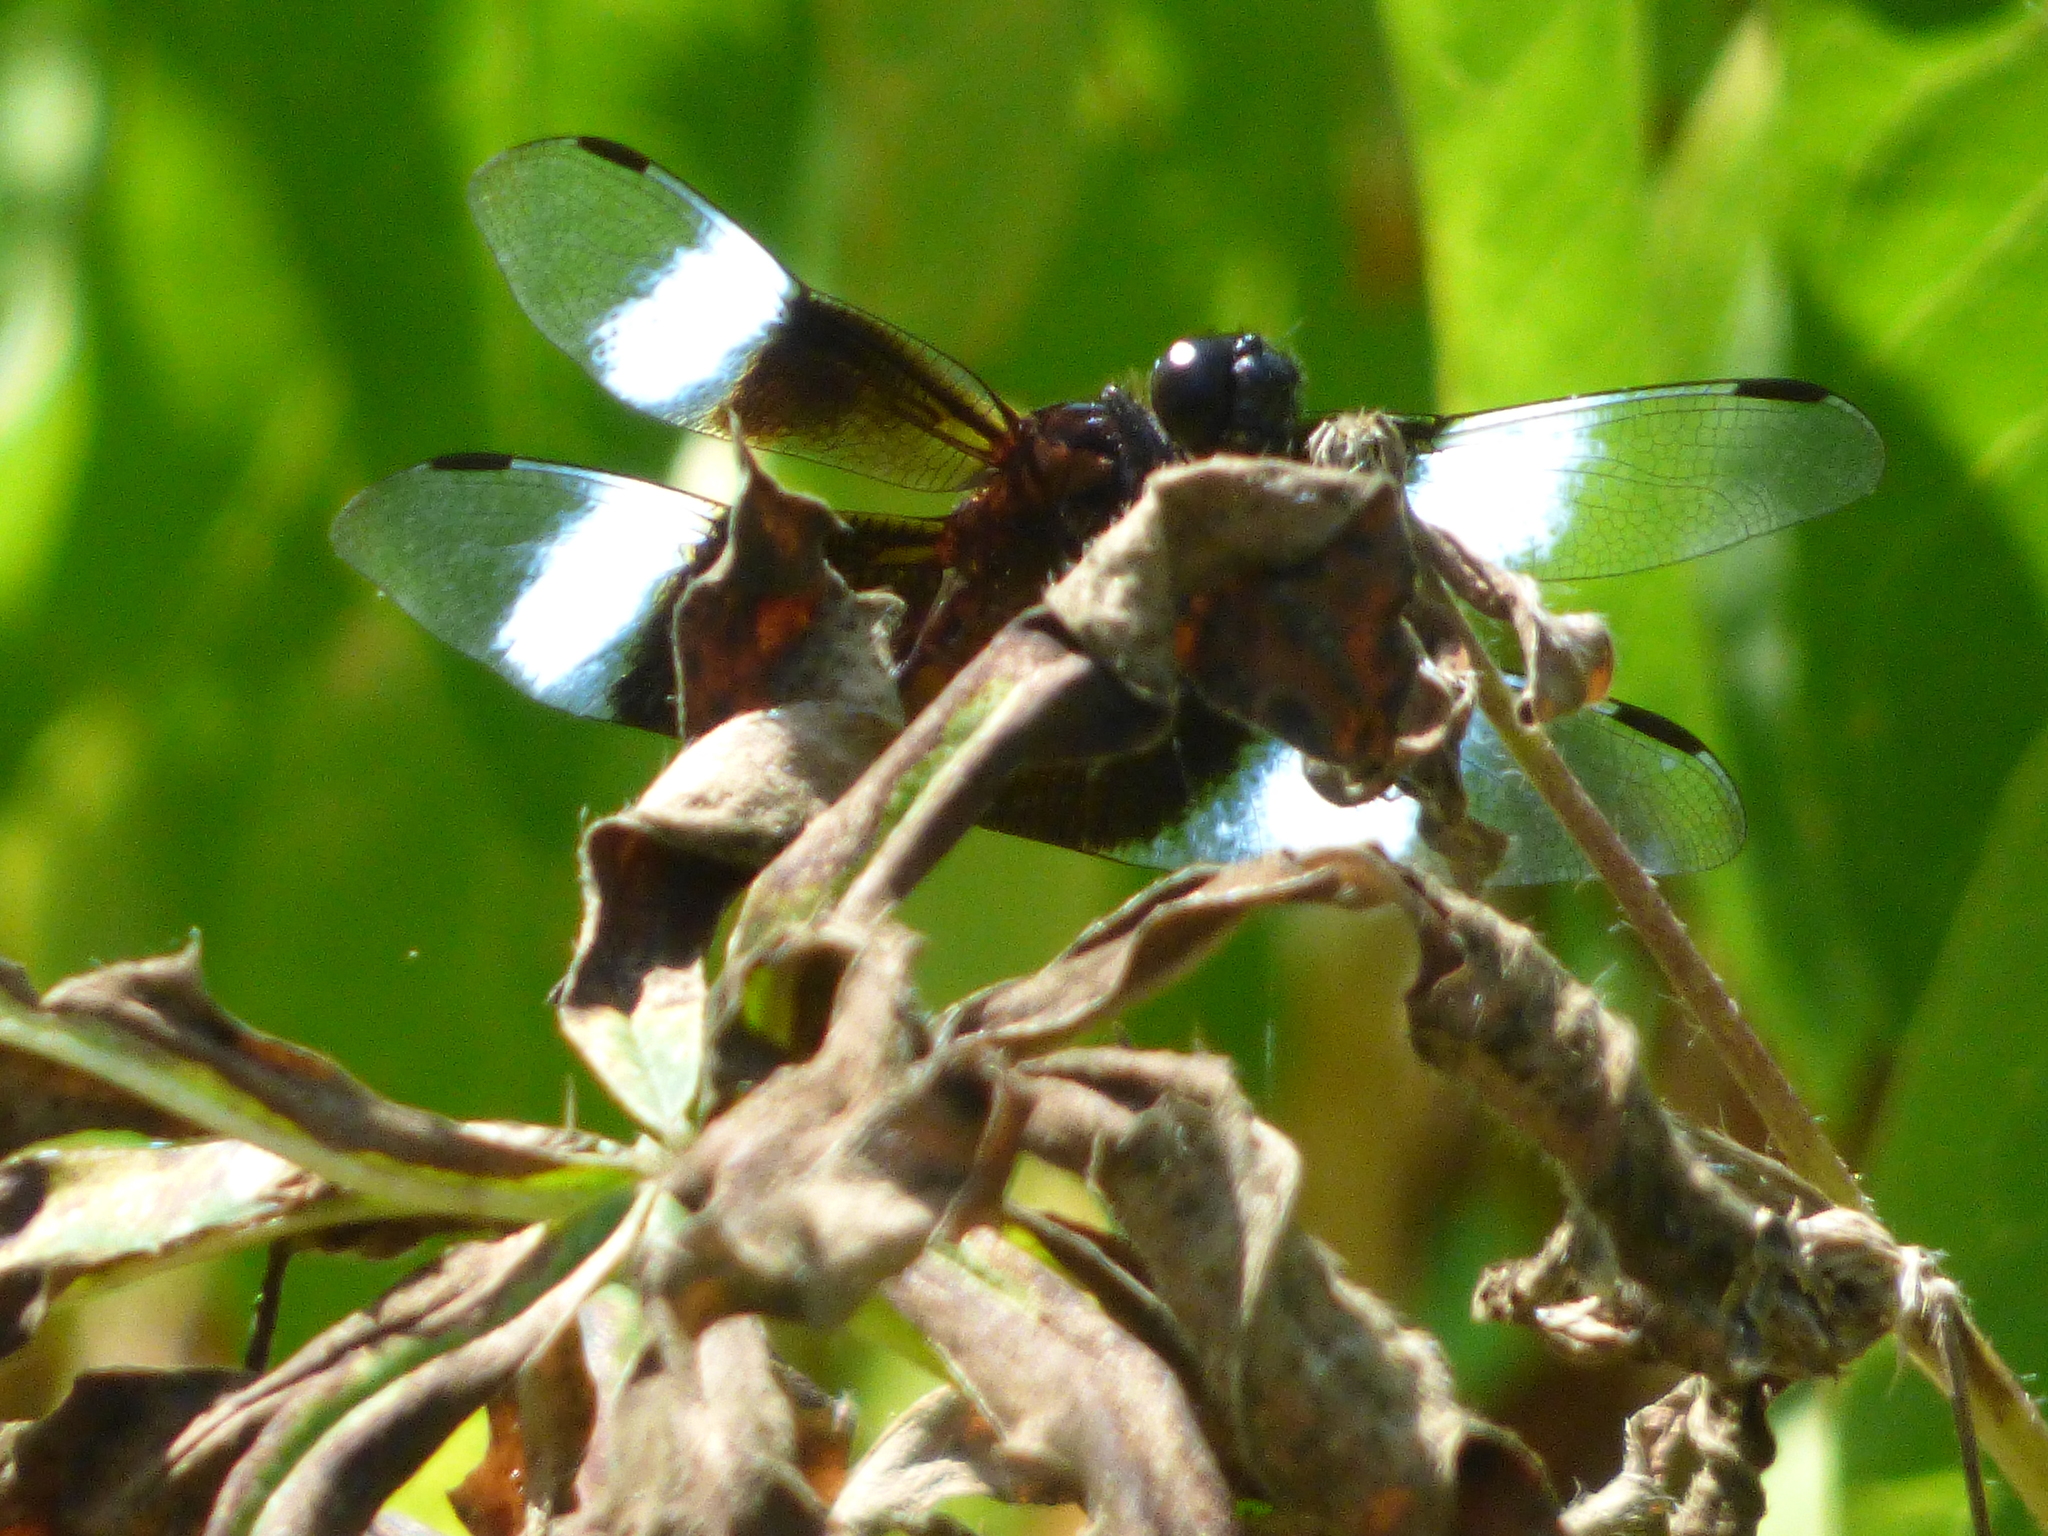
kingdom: Animalia
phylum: Arthropoda
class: Insecta
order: Odonata
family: Libellulidae
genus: Libellula
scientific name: Libellula luctuosa
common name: Widow skimmer
